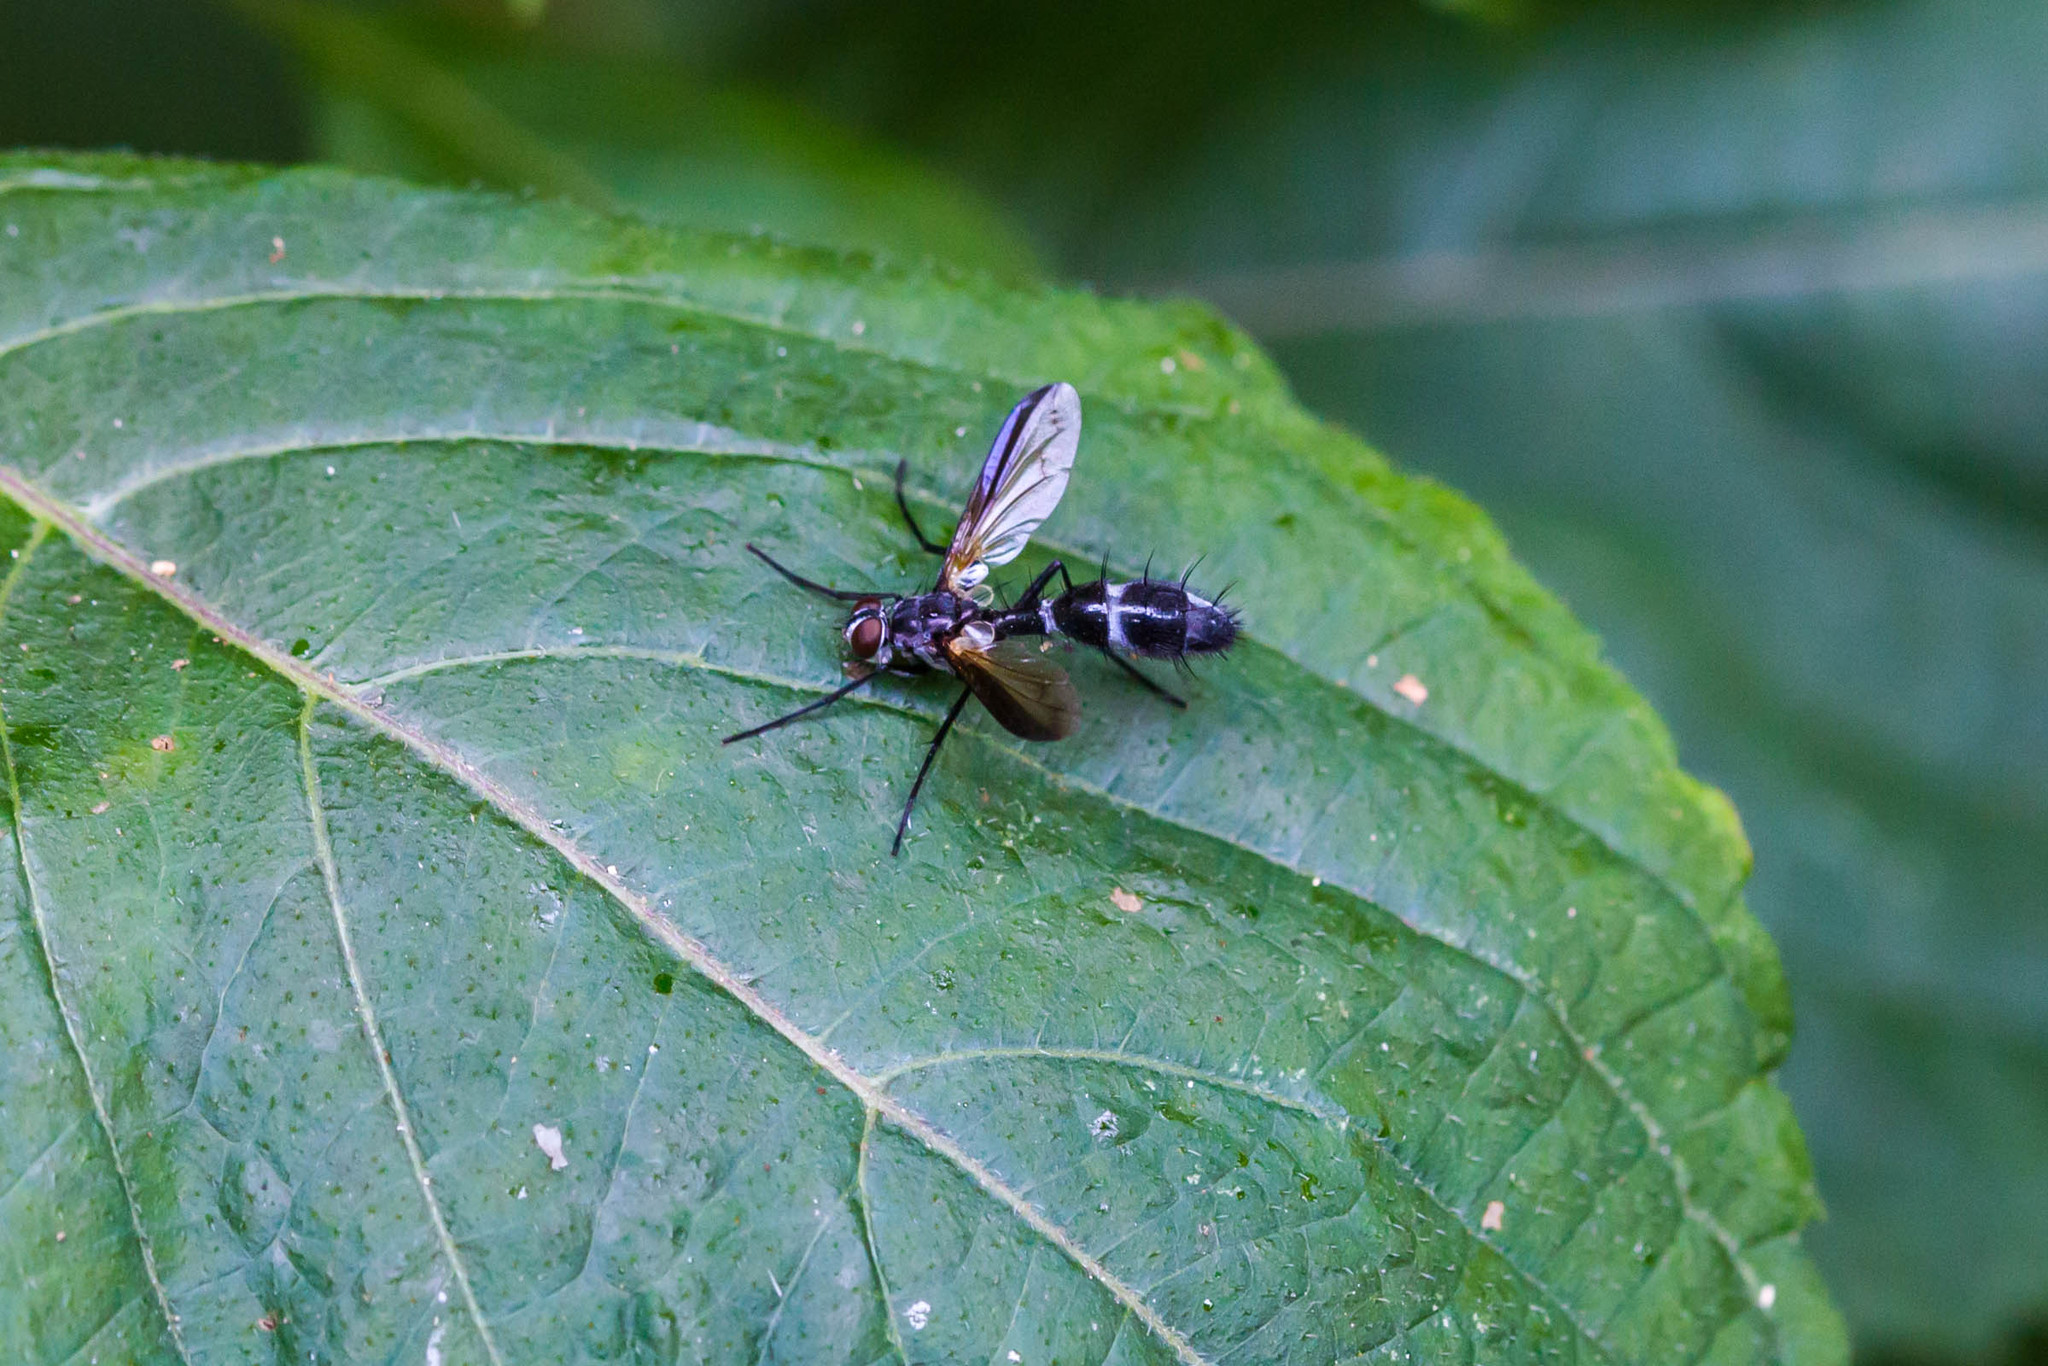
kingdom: Animalia
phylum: Arthropoda
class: Insecta
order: Diptera
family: Tachinidae
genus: Cordyligaster
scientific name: Cordyligaster septentrionalis
